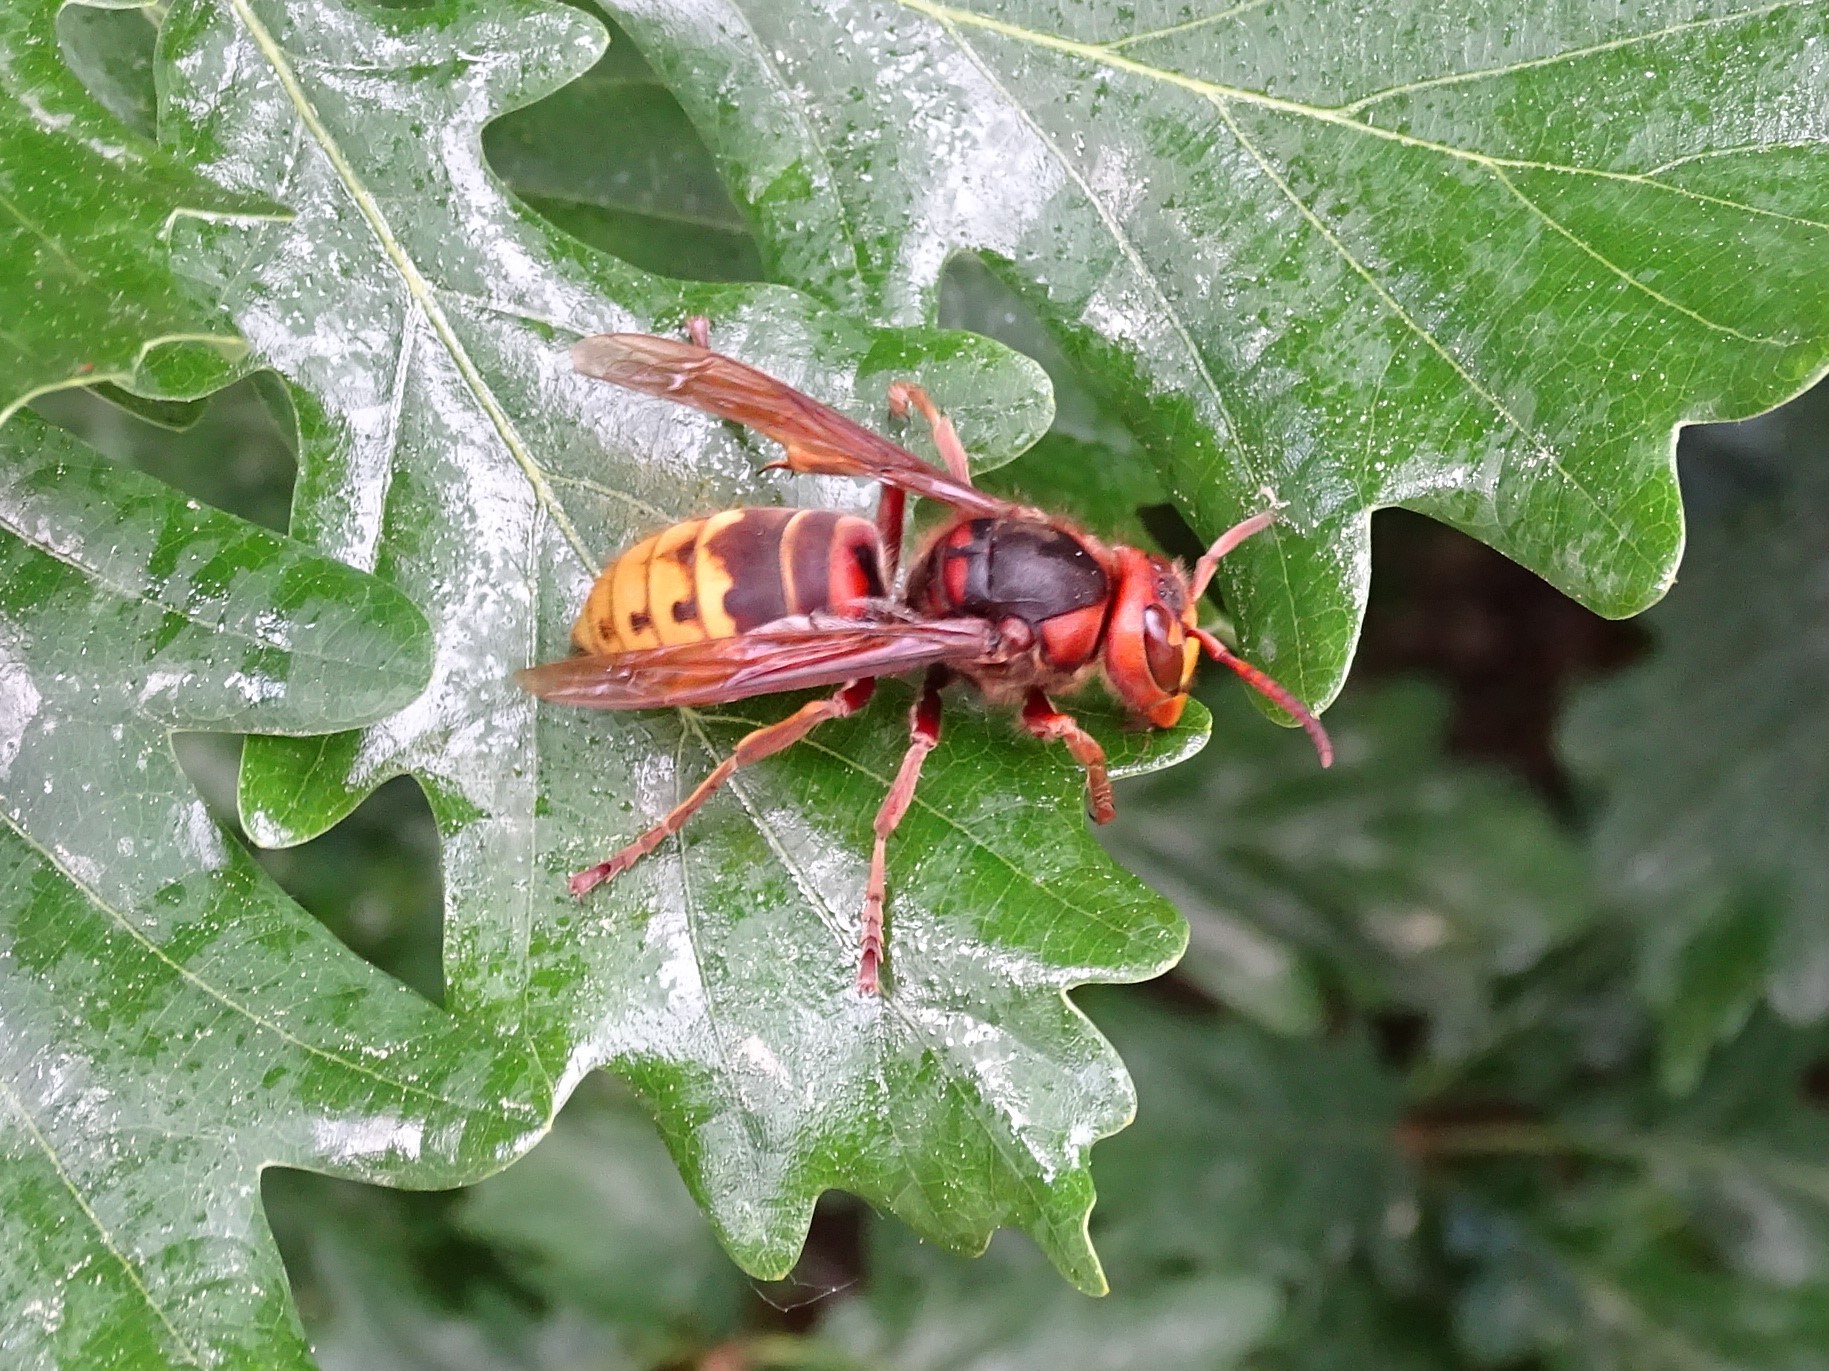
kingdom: Animalia
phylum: Arthropoda
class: Insecta
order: Hymenoptera
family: Vespidae
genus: Vespa
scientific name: Vespa crabro
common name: Hornet
